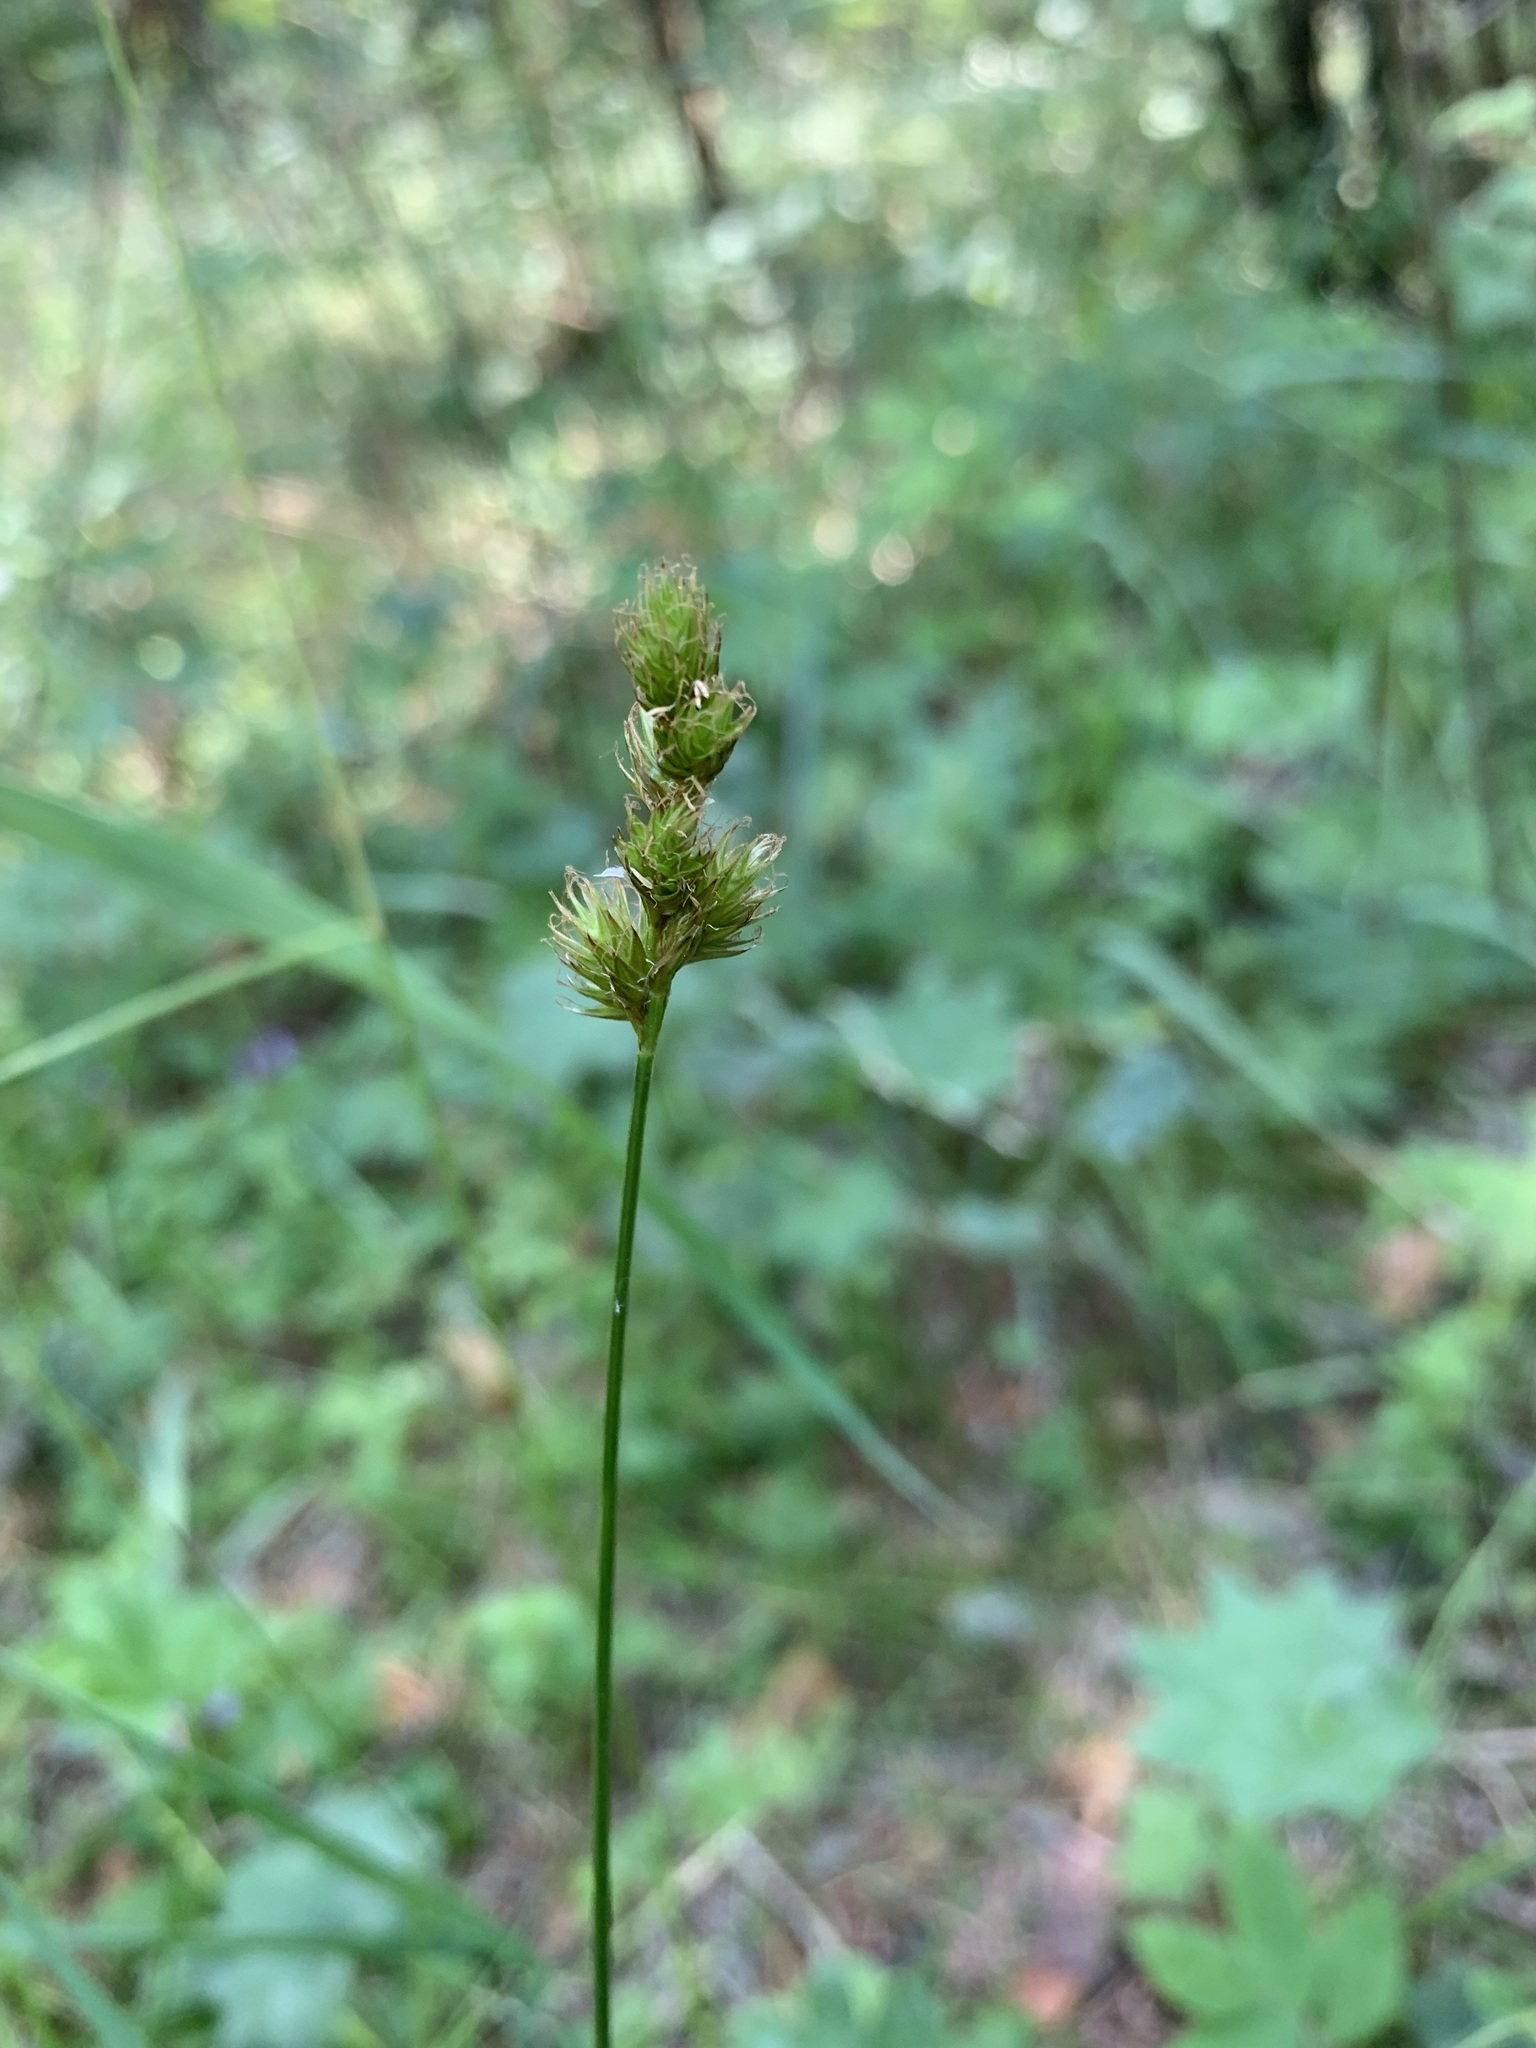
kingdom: Plantae
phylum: Tracheophyta
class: Liliopsida
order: Poales
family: Cyperaceae
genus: Carex
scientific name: Carex leporina
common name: Oval sedge
